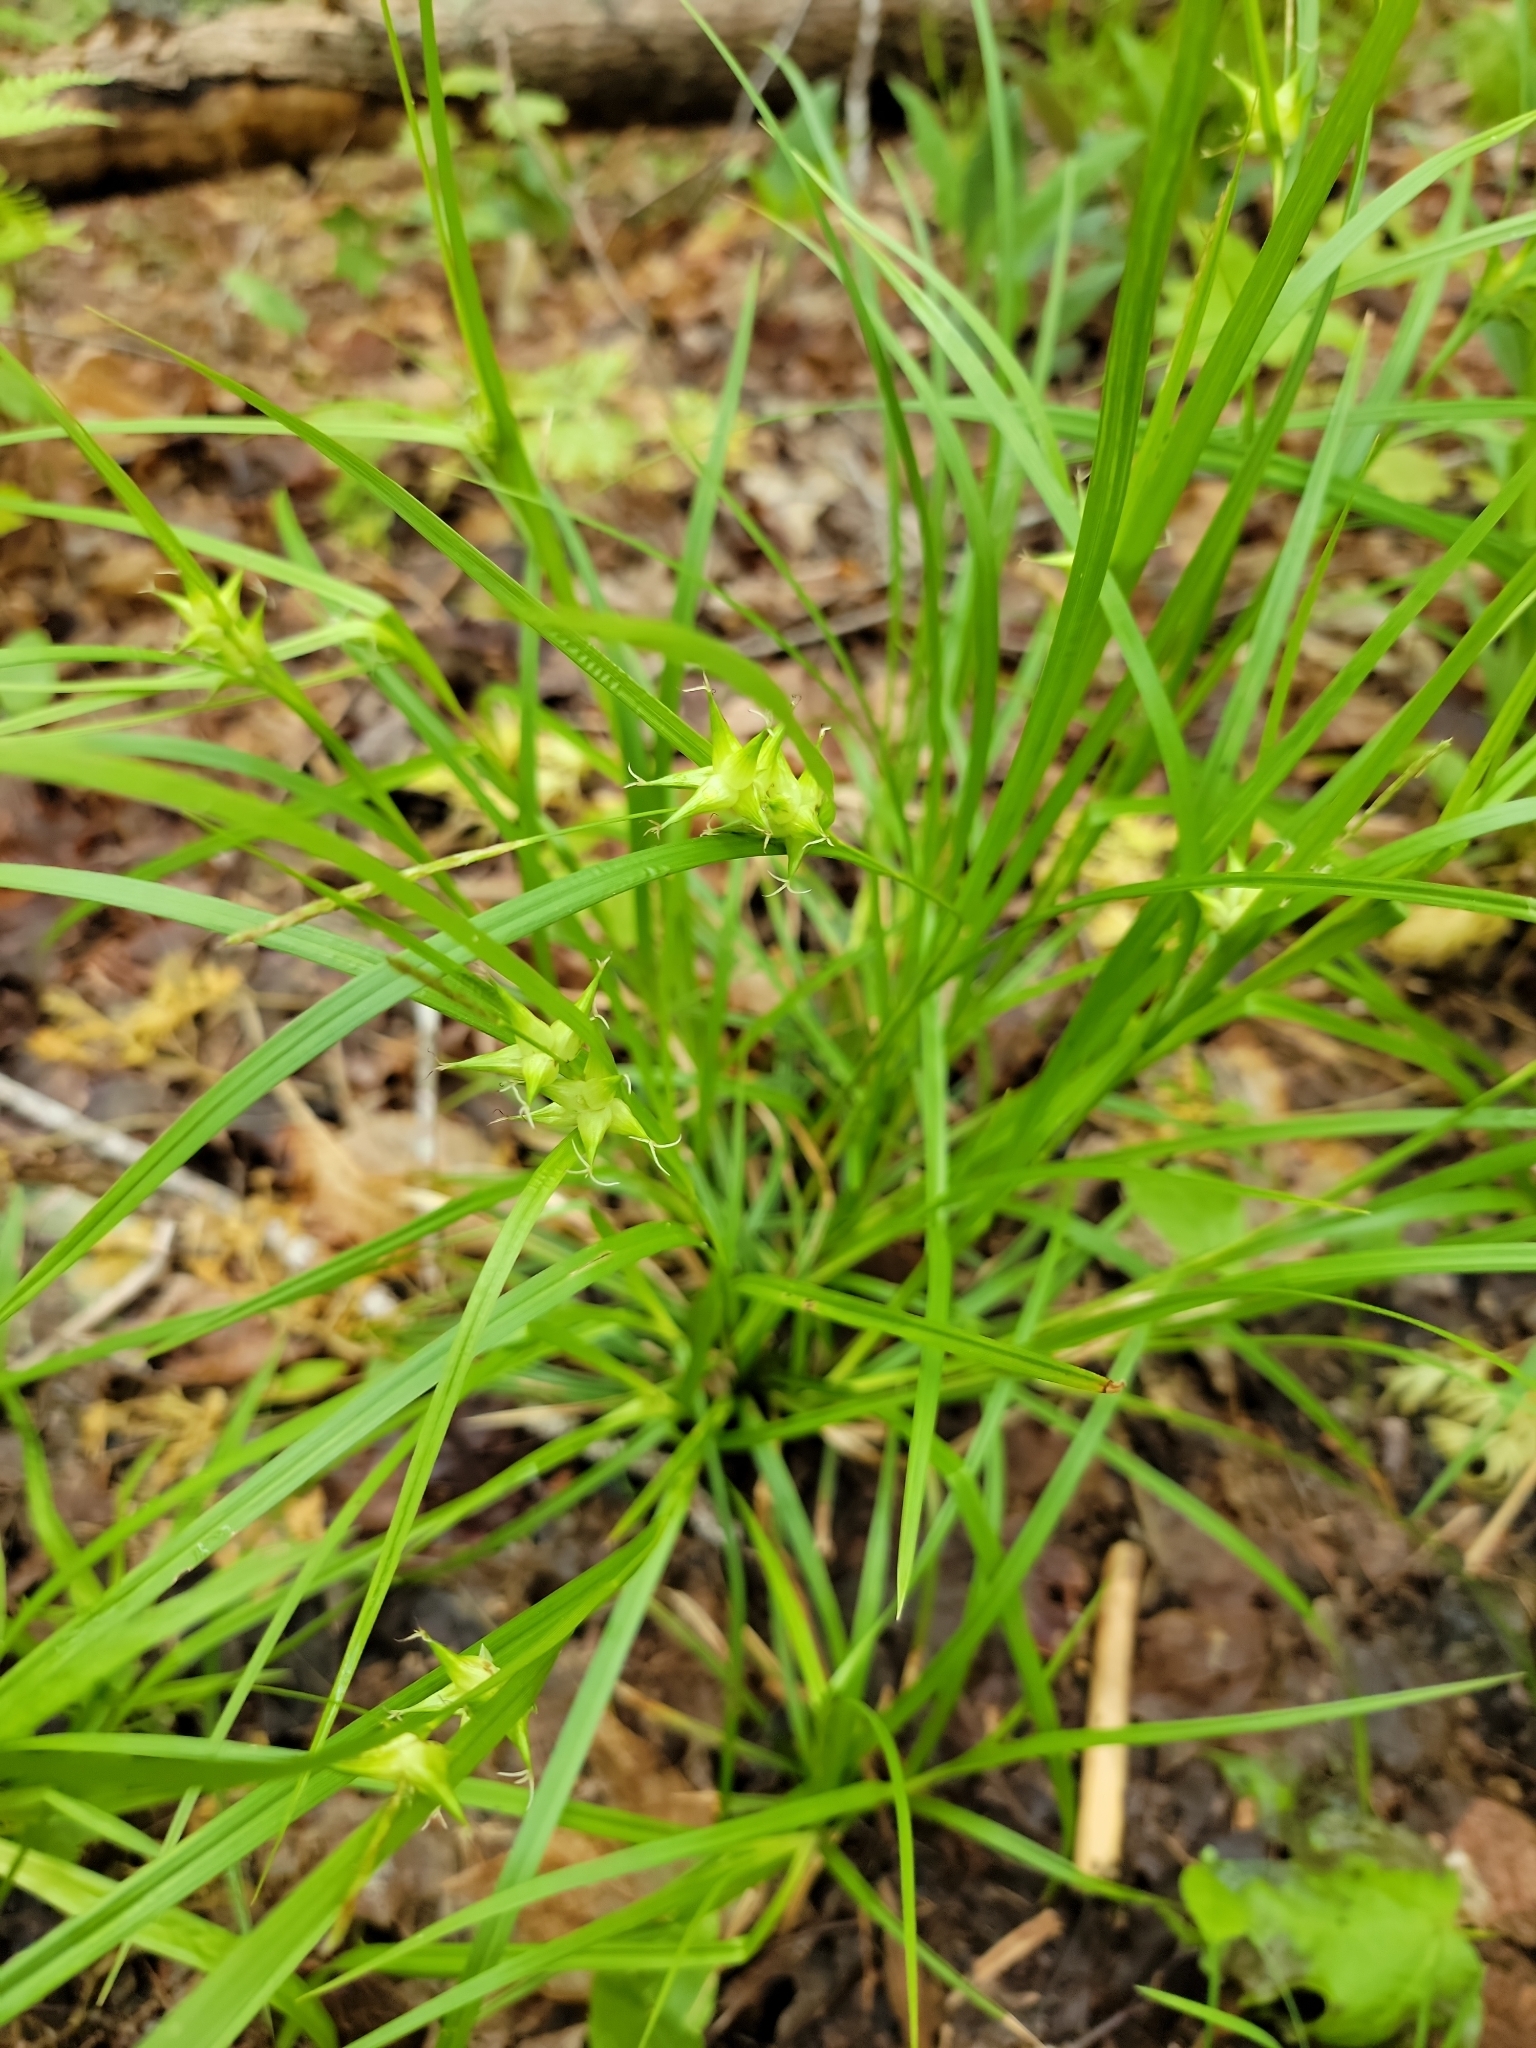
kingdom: Plantae
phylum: Tracheophyta
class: Liliopsida
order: Poales
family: Cyperaceae
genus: Carex
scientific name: Carex intumescens
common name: Greater bladder sedge
